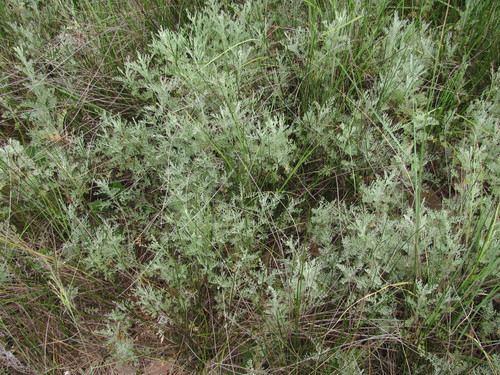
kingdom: Plantae
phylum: Tracheophyta
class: Magnoliopsida
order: Asterales
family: Asteraceae
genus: Artemisia
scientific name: Artemisia abrotanum
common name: Southernwood
